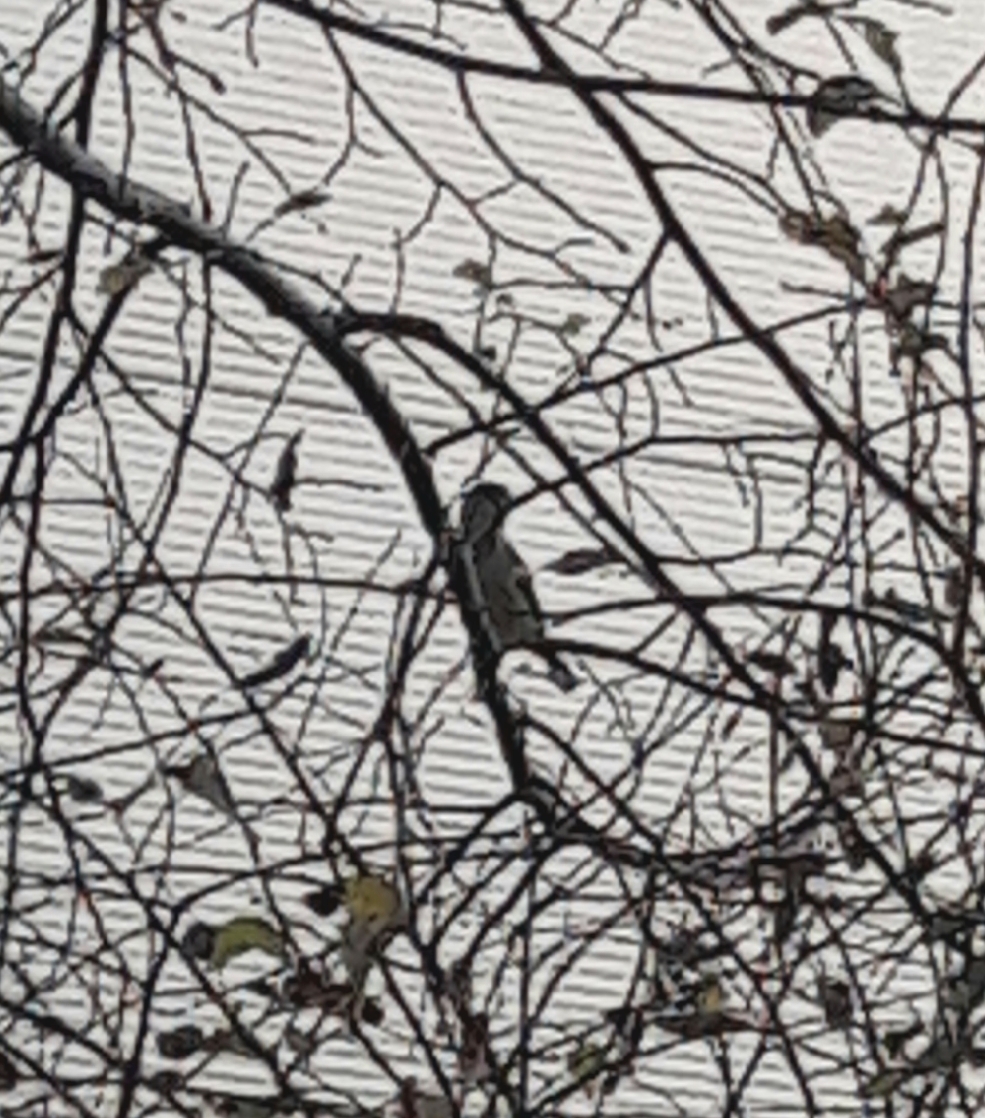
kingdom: Animalia
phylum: Chordata
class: Aves
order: Passeriformes
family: Passeridae
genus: Passer
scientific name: Passer domesticus
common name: House sparrow
